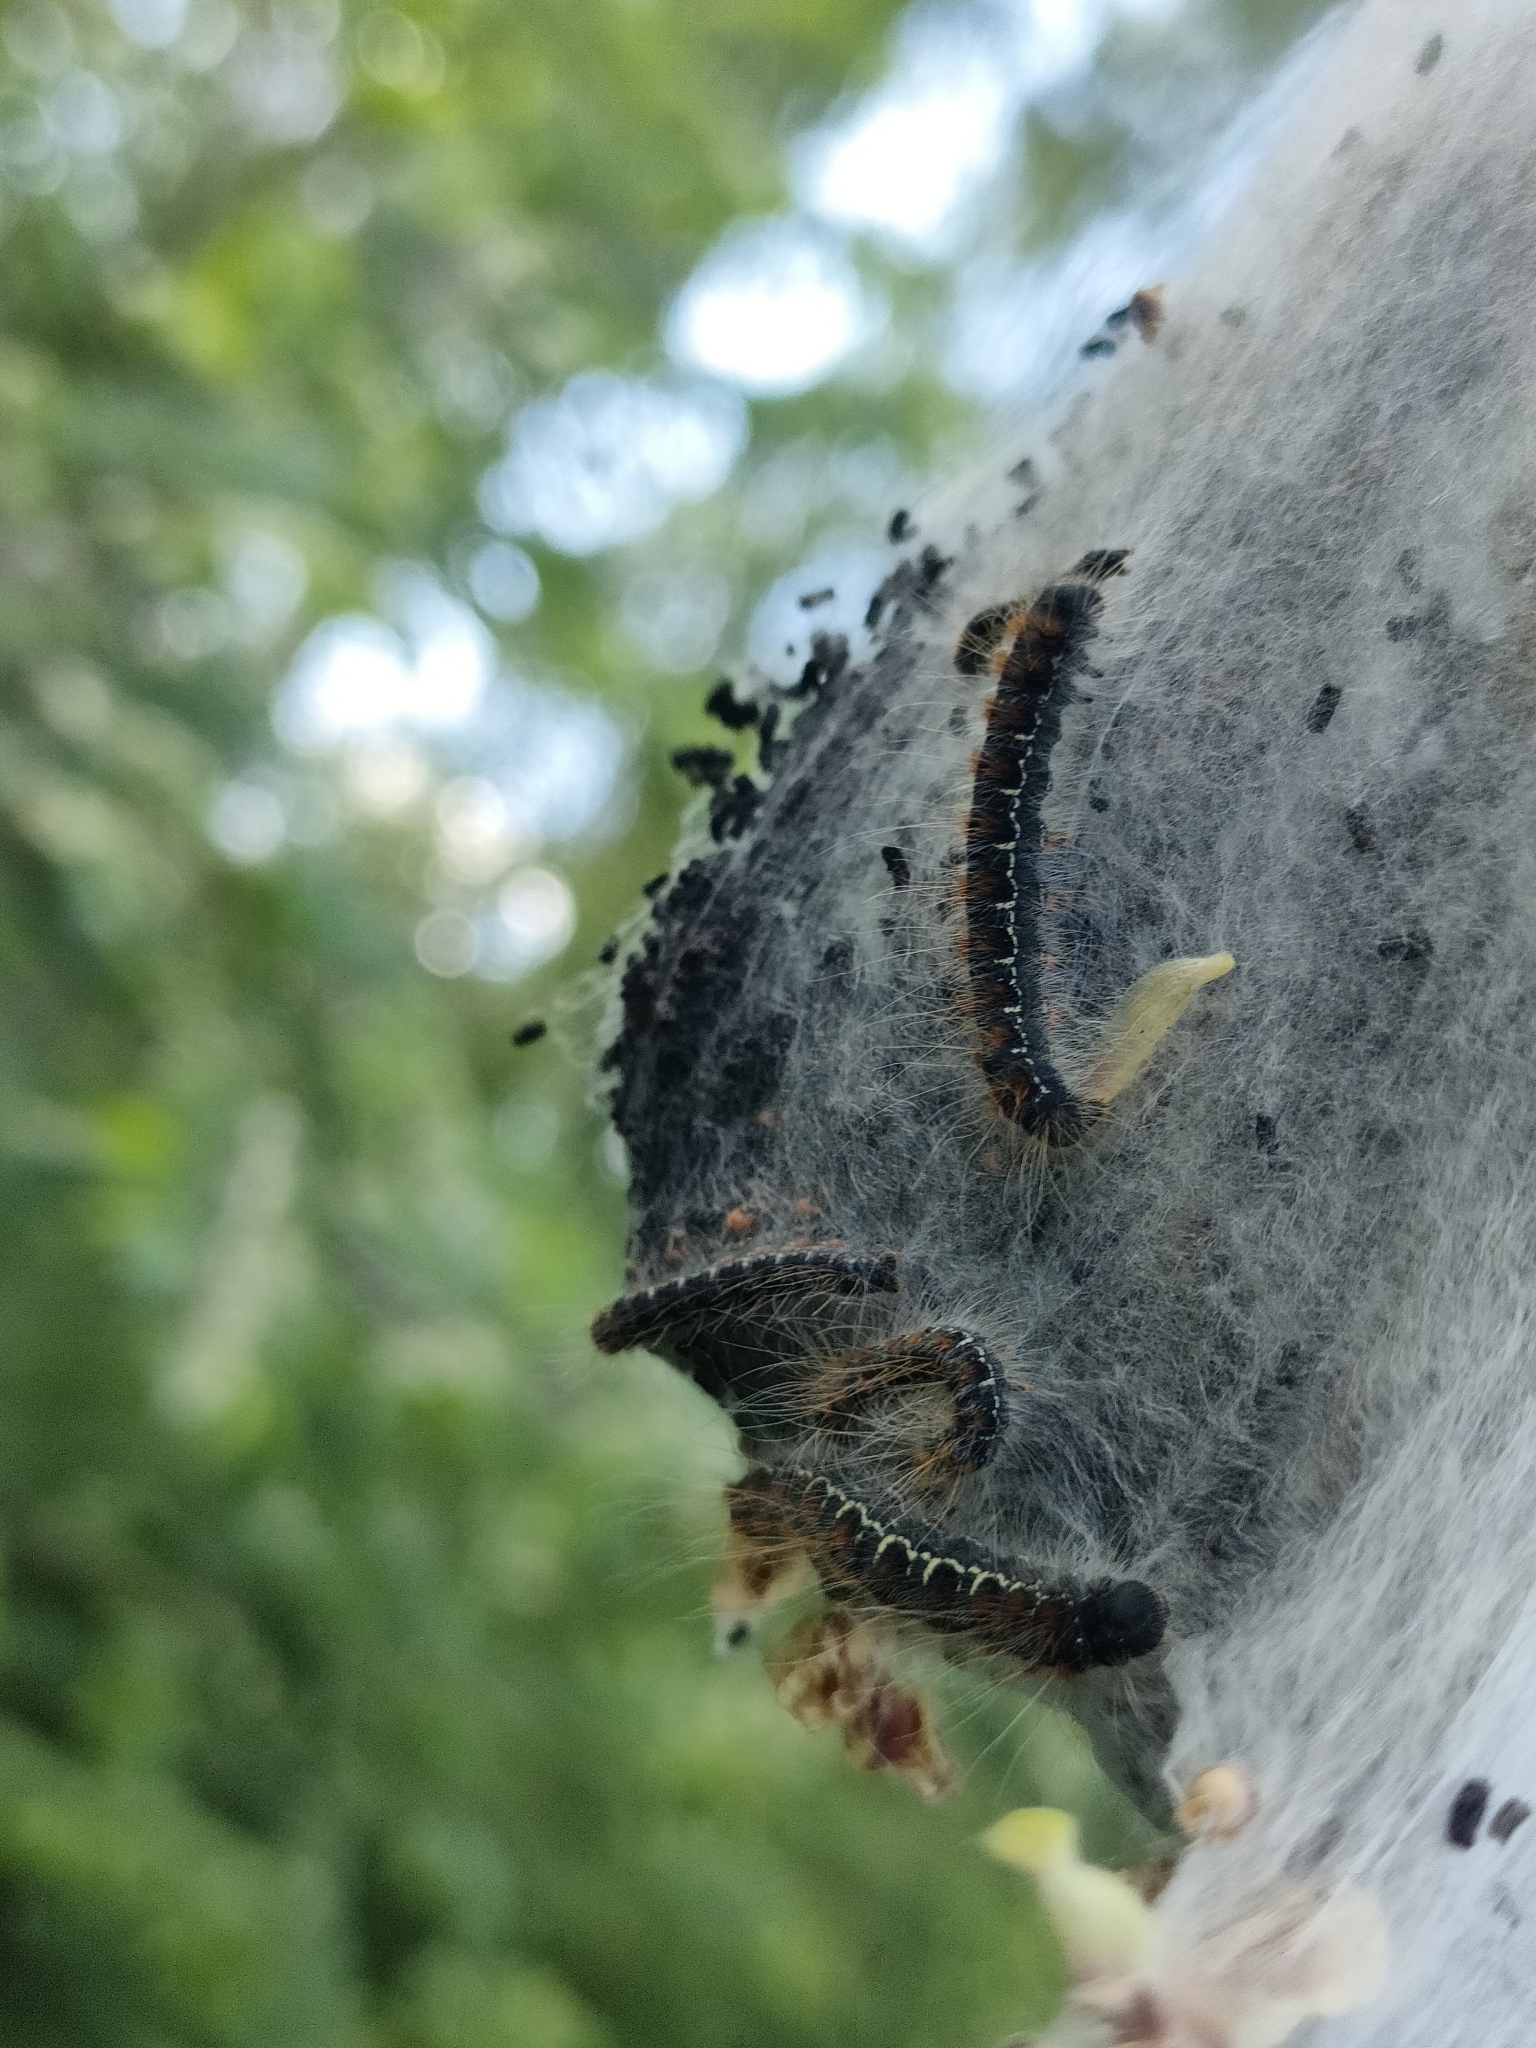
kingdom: Animalia
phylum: Arthropoda
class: Insecta
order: Lepidoptera
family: Lasiocampidae
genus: Eriogaster
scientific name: Eriogaster lanestris
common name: Small eggar
